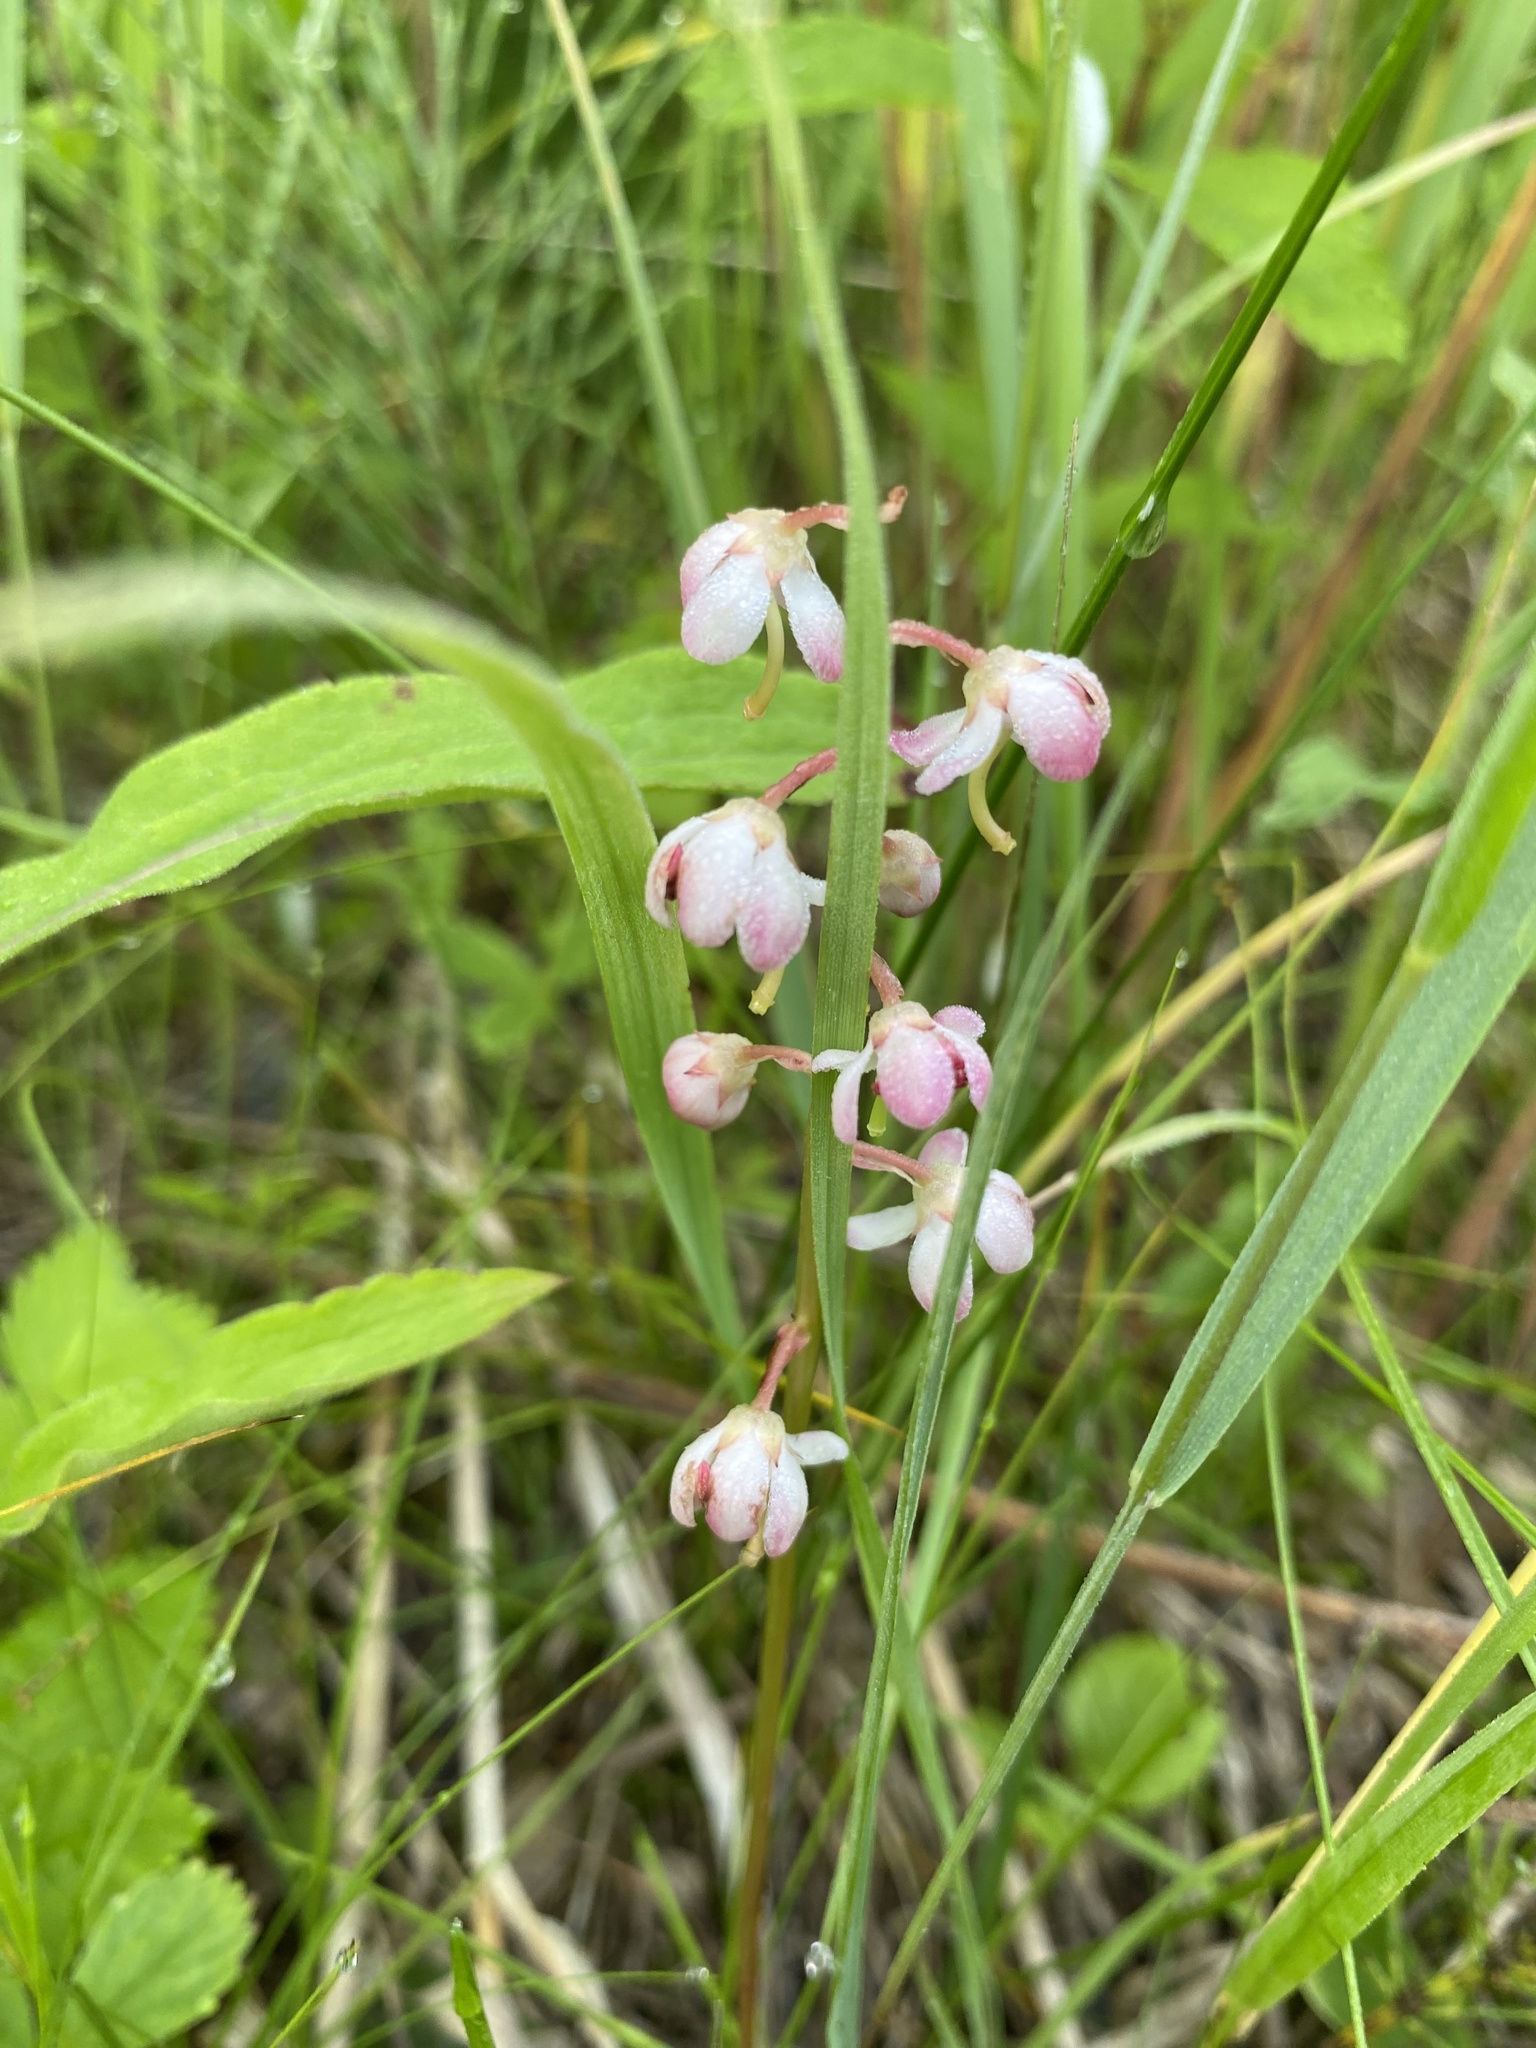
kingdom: Plantae
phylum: Tracheophyta
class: Magnoliopsida
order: Ericales
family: Ericaceae
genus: Pyrola
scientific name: Pyrola asarifolia
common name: Bog wintergreen
